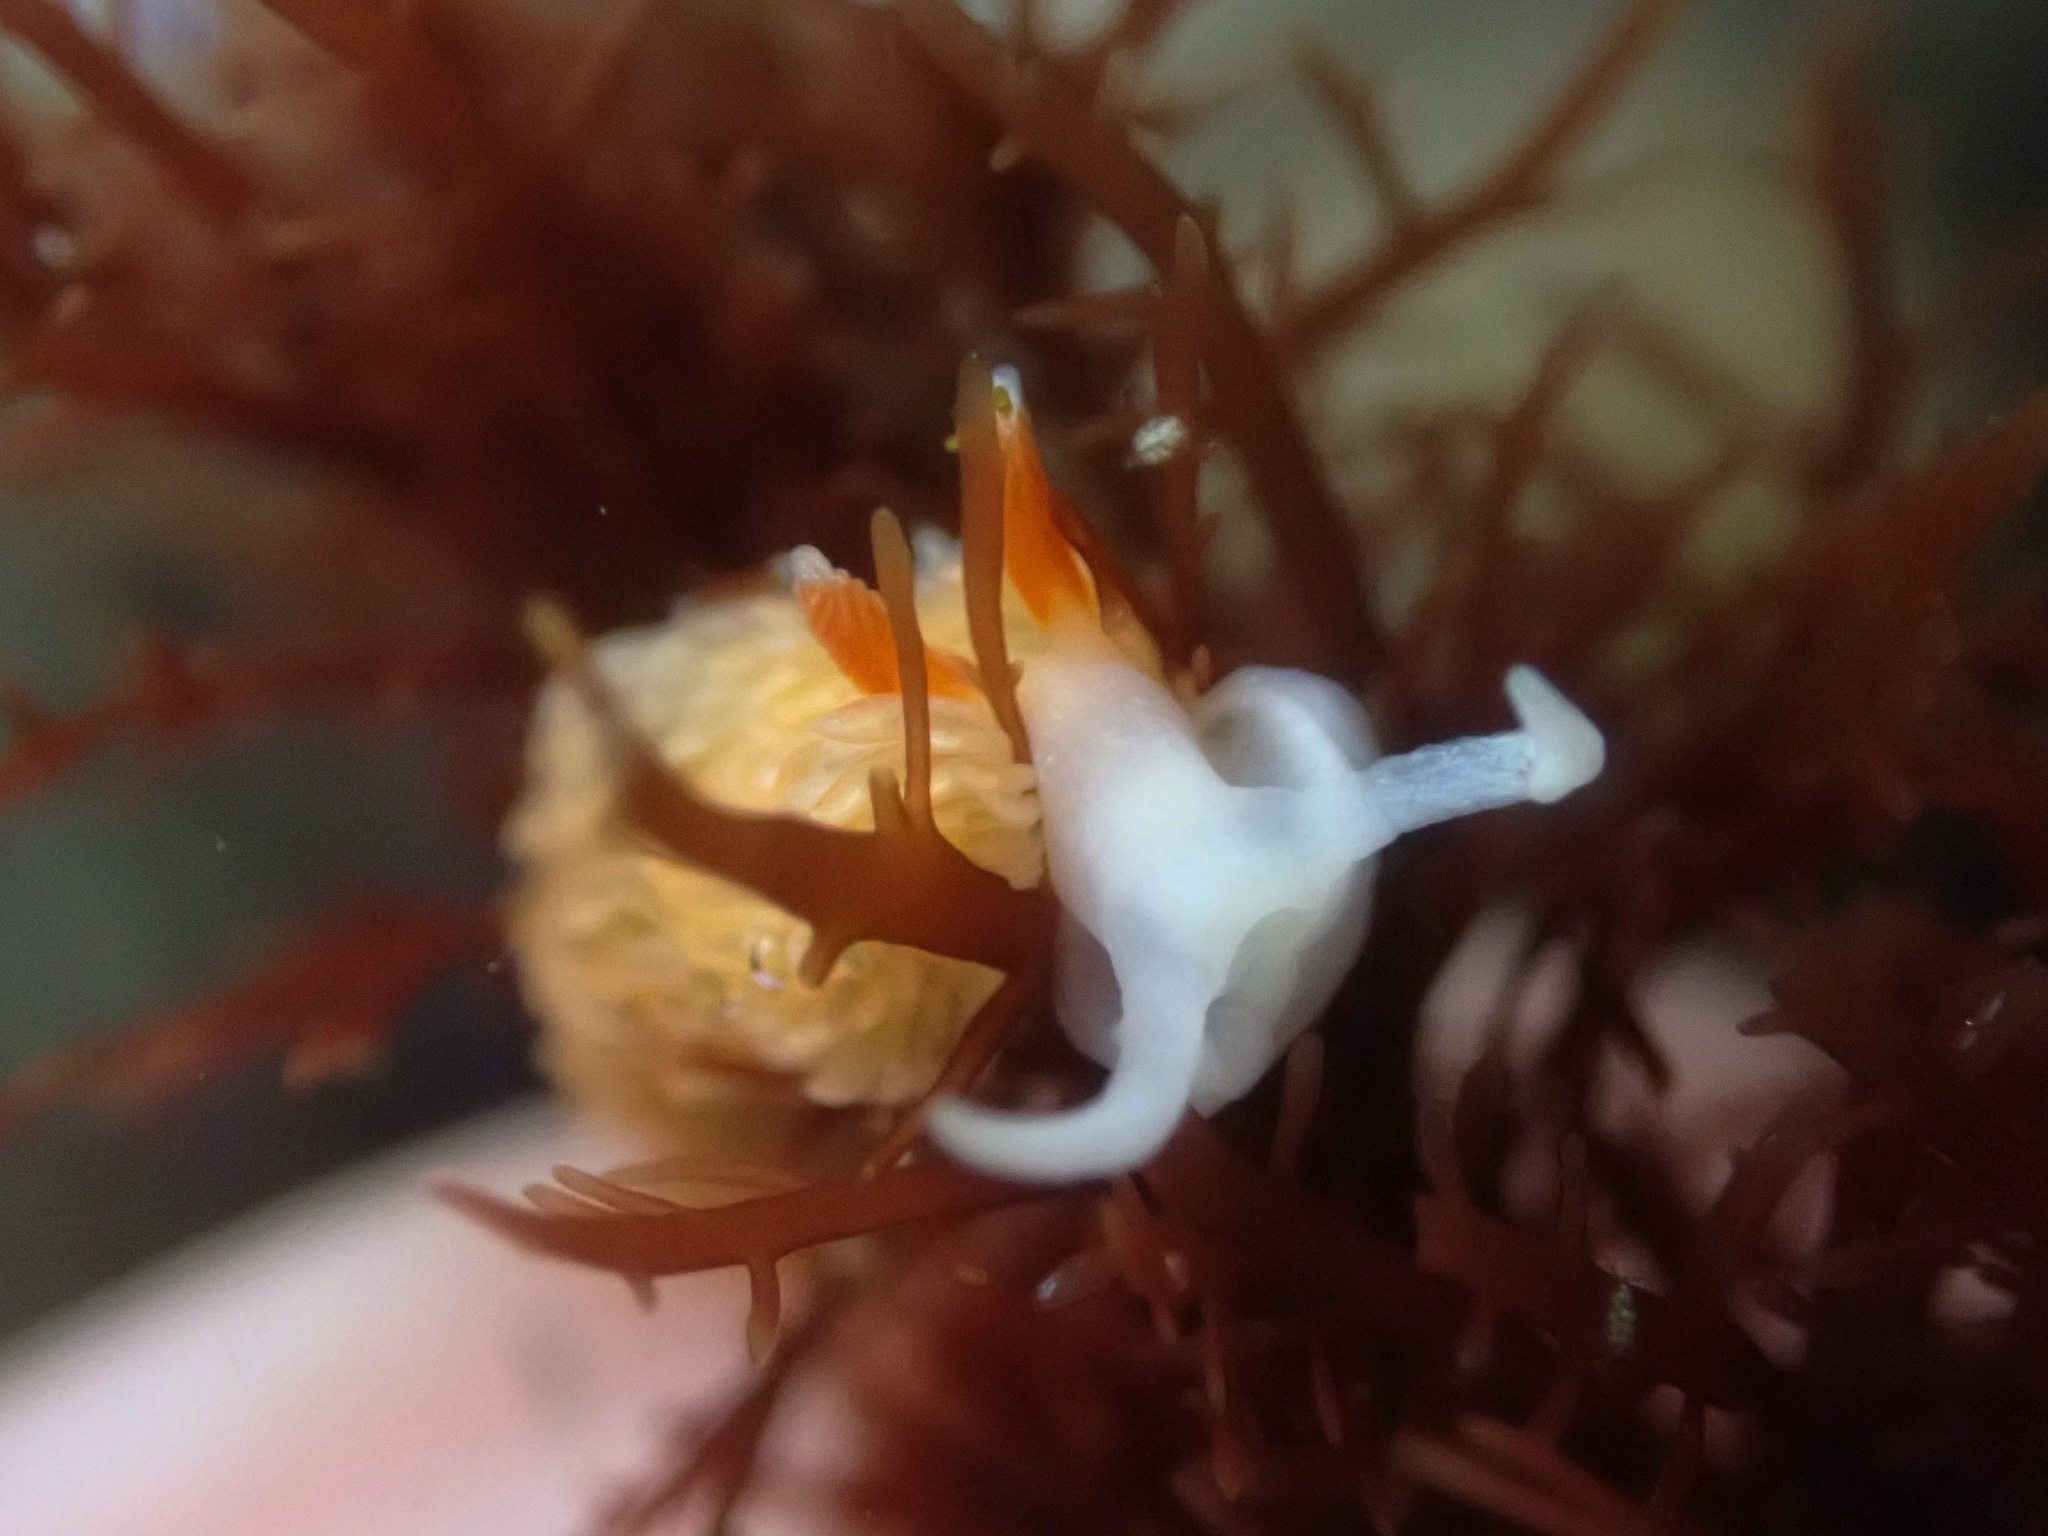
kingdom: Animalia
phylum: Mollusca
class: Gastropoda
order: Nudibranchia
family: Aeolidiidae
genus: Anteaeolidiella
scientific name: Anteaeolidiella oliviae
